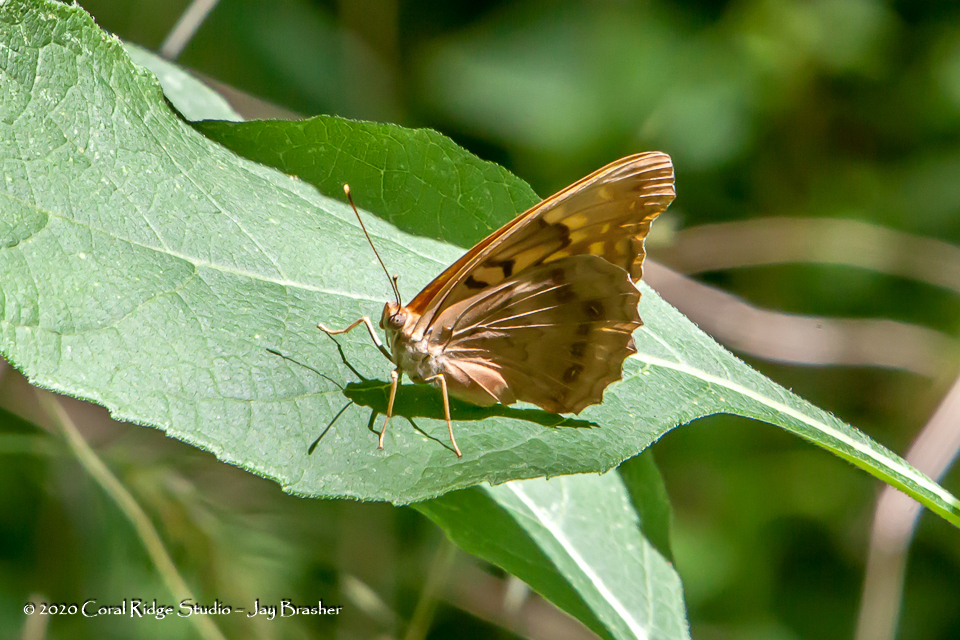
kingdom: Animalia
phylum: Arthropoda
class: Insecta
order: Lepidoptera
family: Nymphalidae
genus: Asterocampa
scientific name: Asterocampa clyton
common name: Tawny emperor
